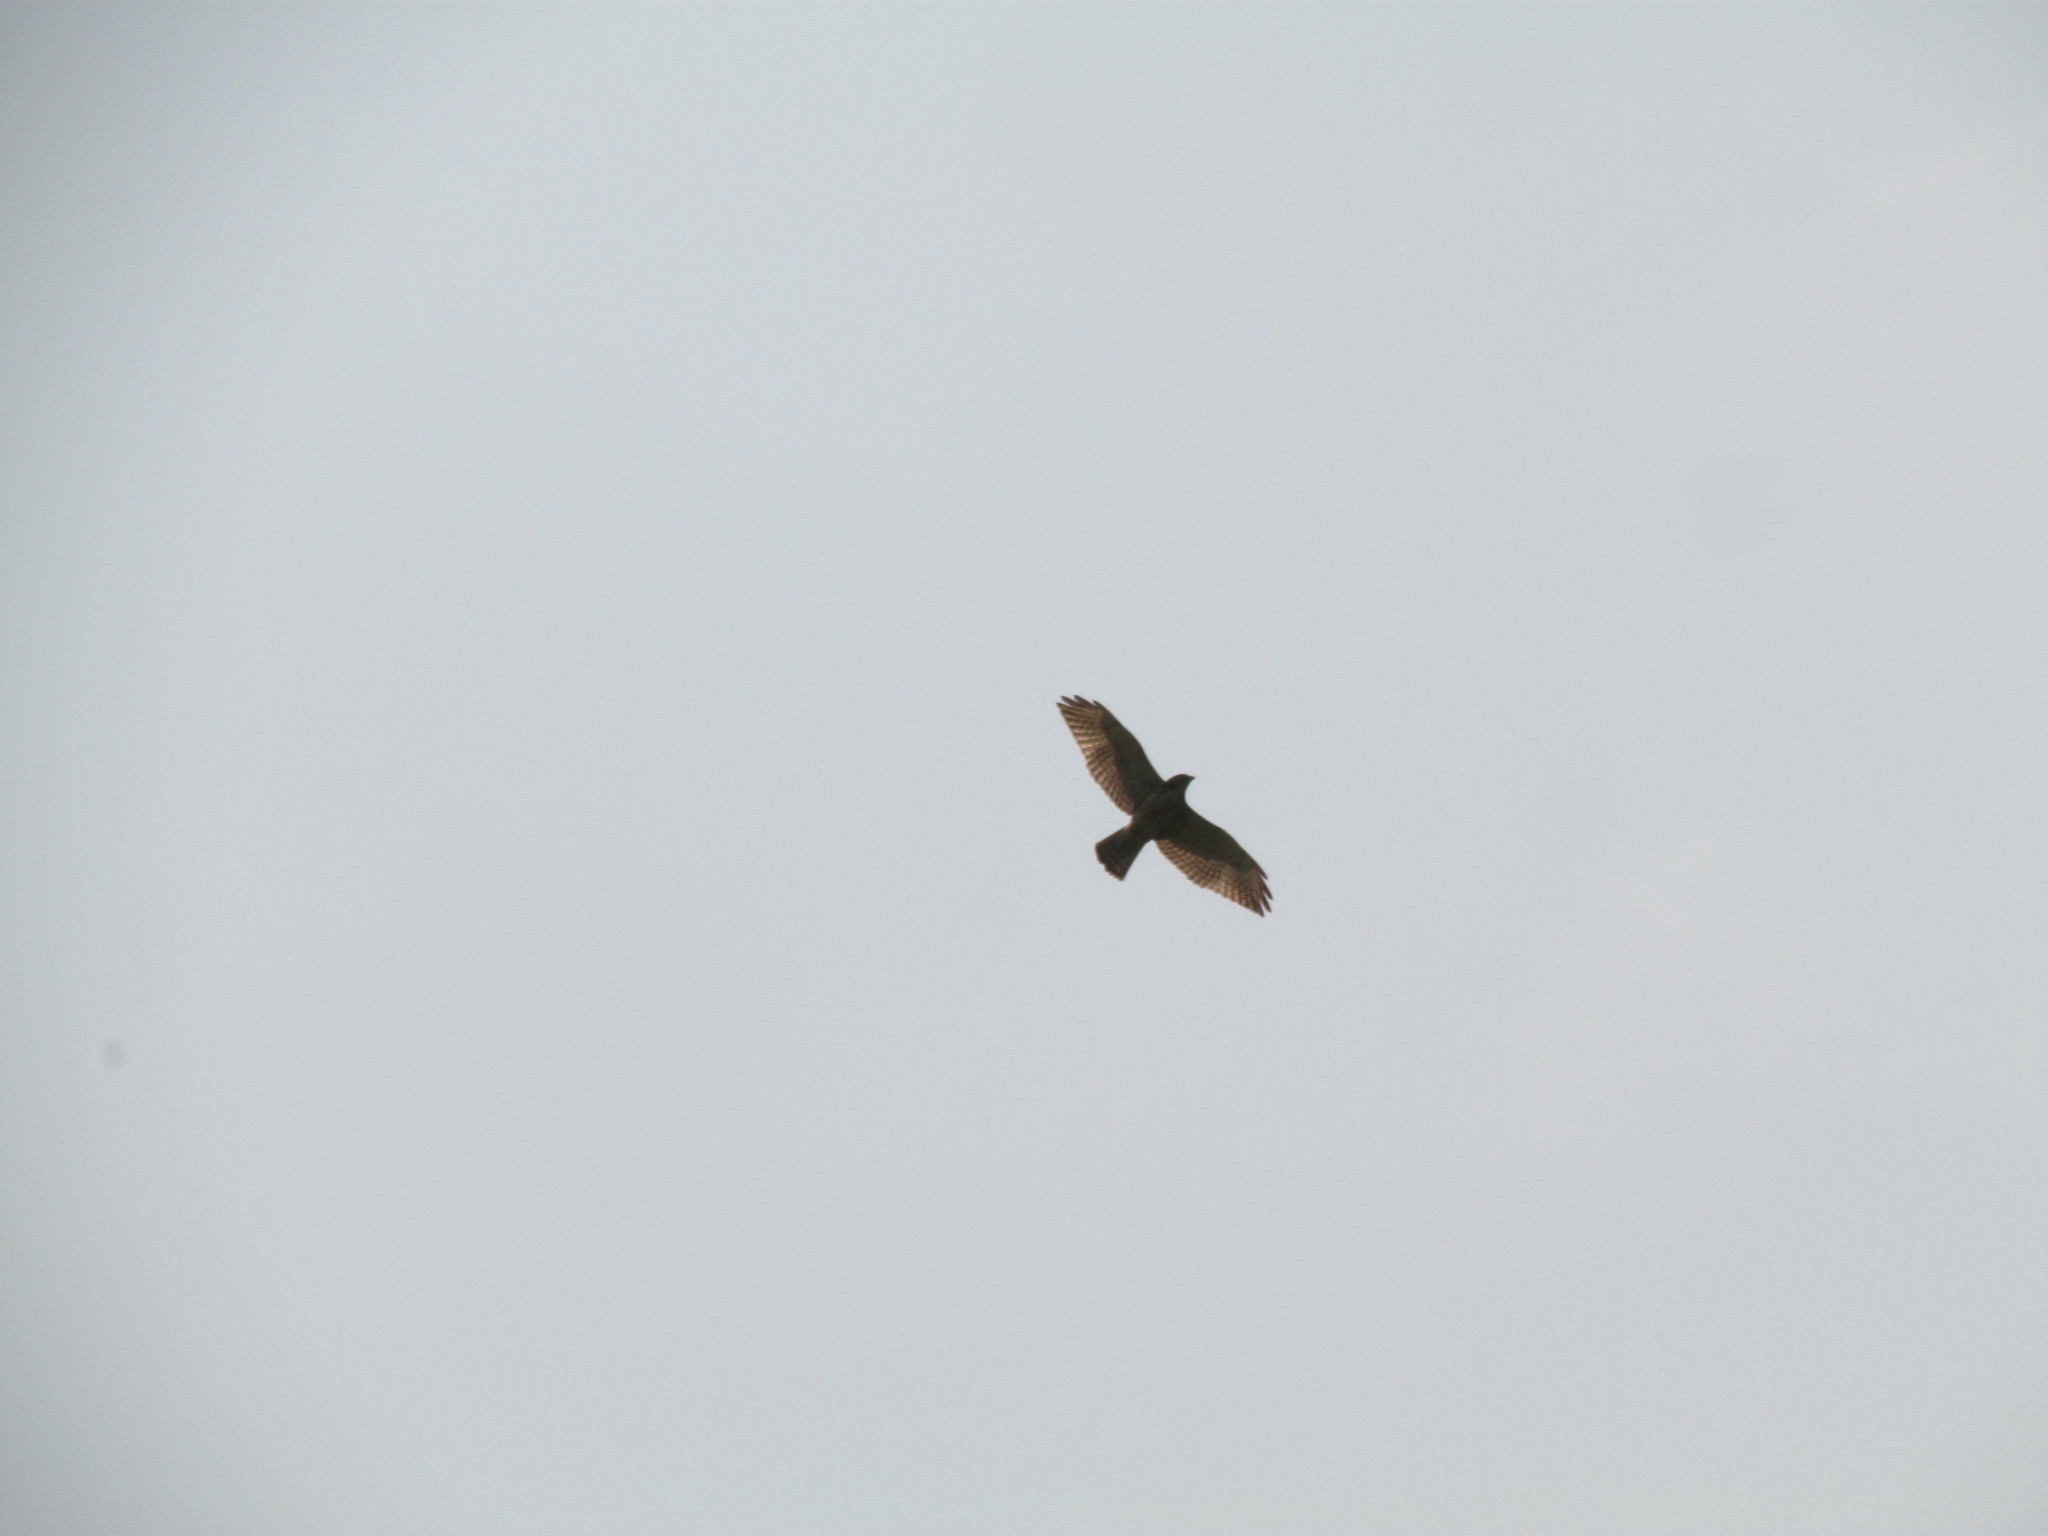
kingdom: Animalia
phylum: Chordata
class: Aves
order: Accipitriformes
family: Accipitridae
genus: Buteo
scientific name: Buteo nitidus
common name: Grey-lined hawk
